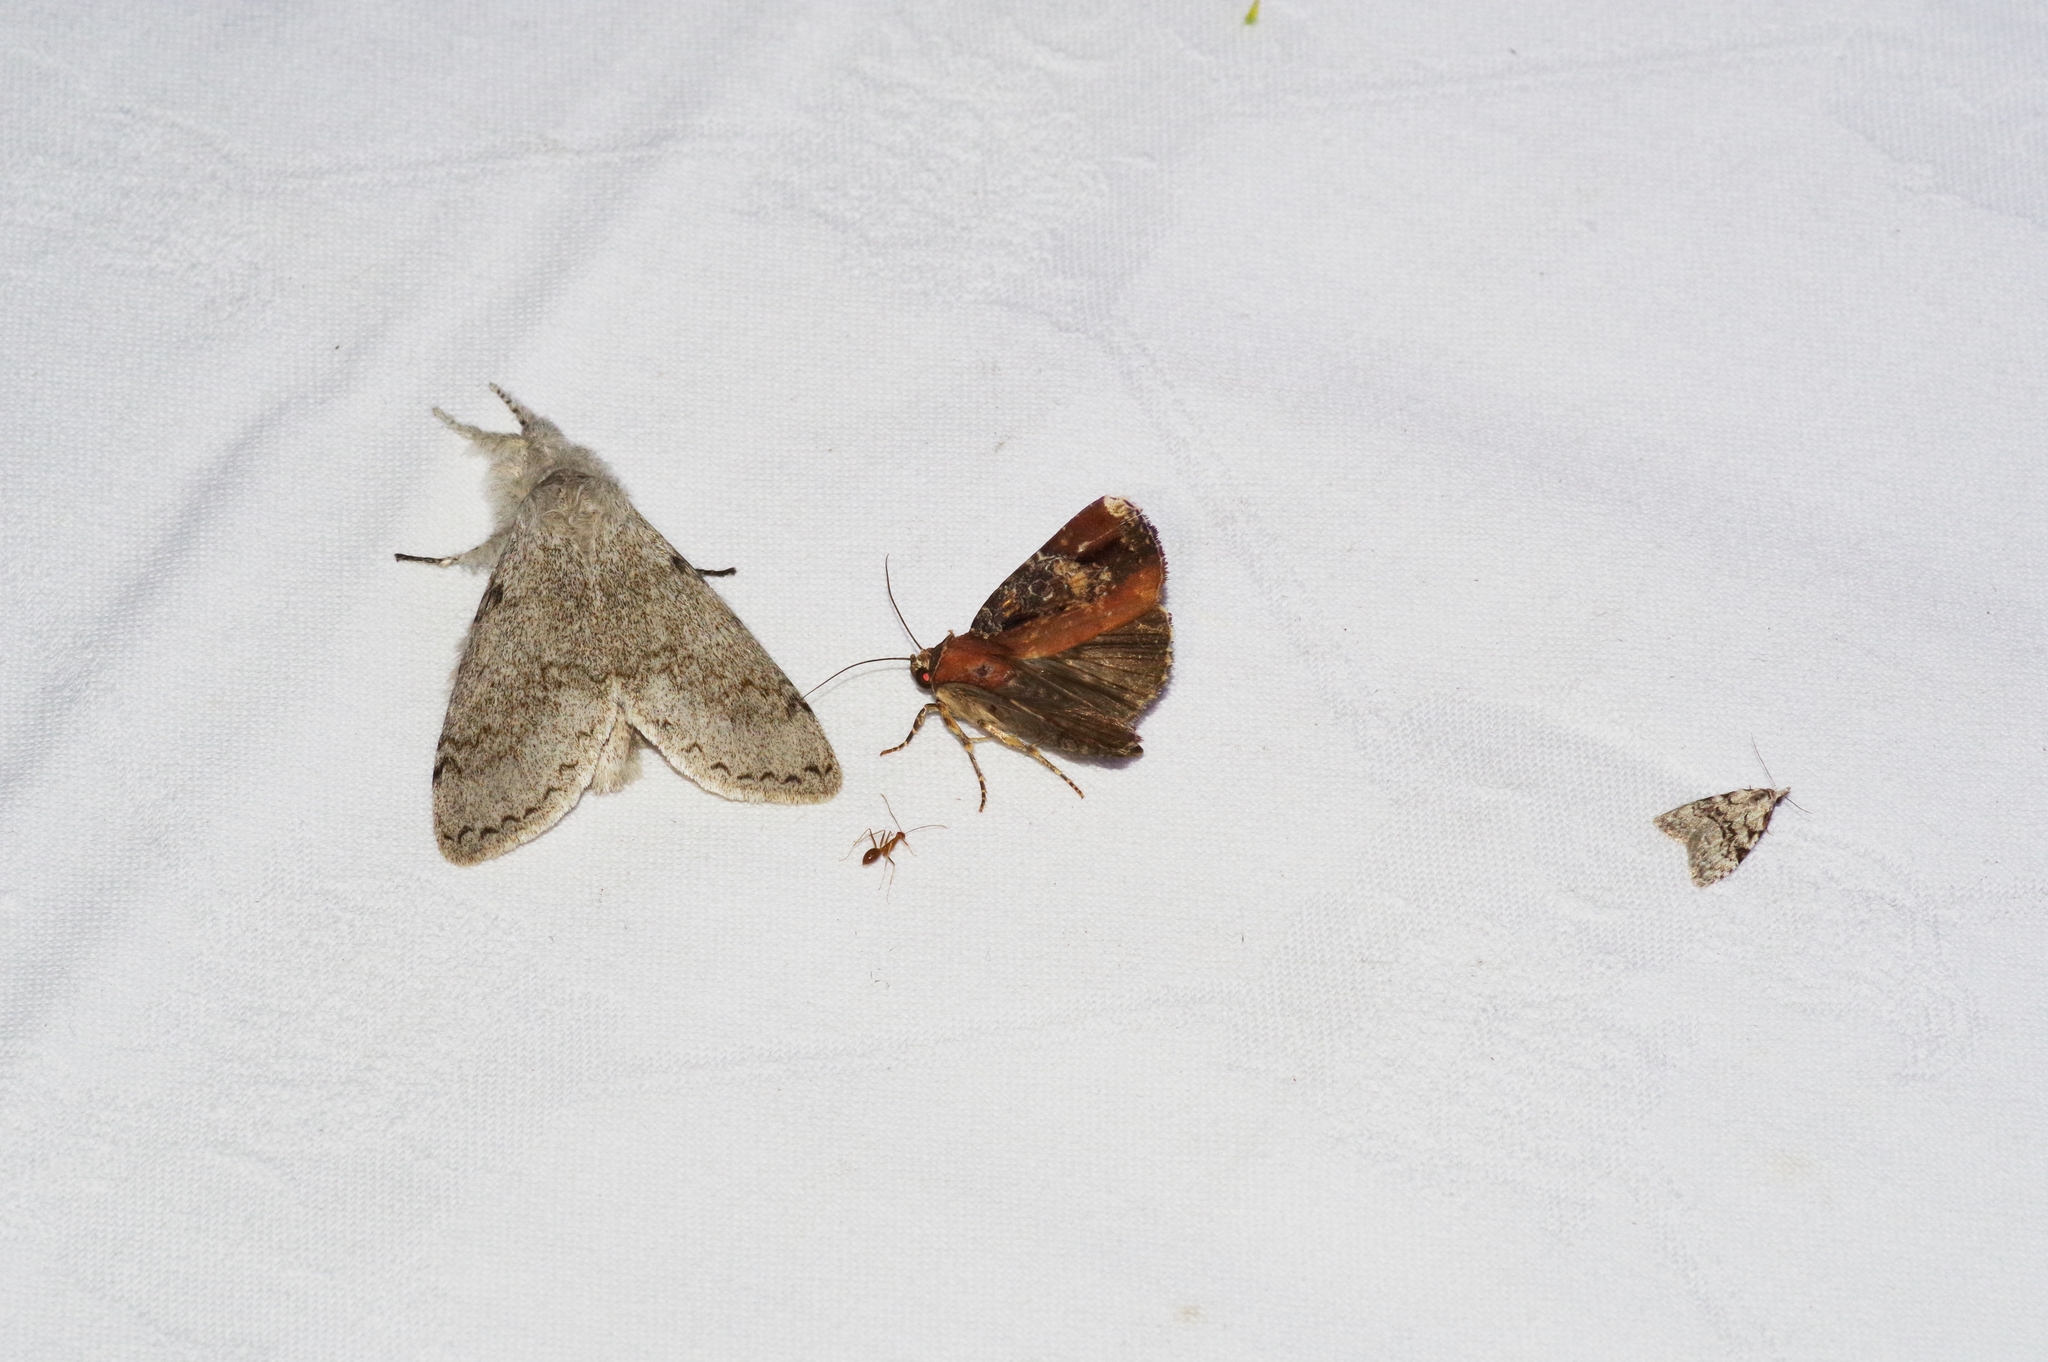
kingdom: Animalia
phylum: Arthropoda
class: Insecta
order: Lepidoptera
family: Noctuidae
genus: Callyna
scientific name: Callyna contracta
